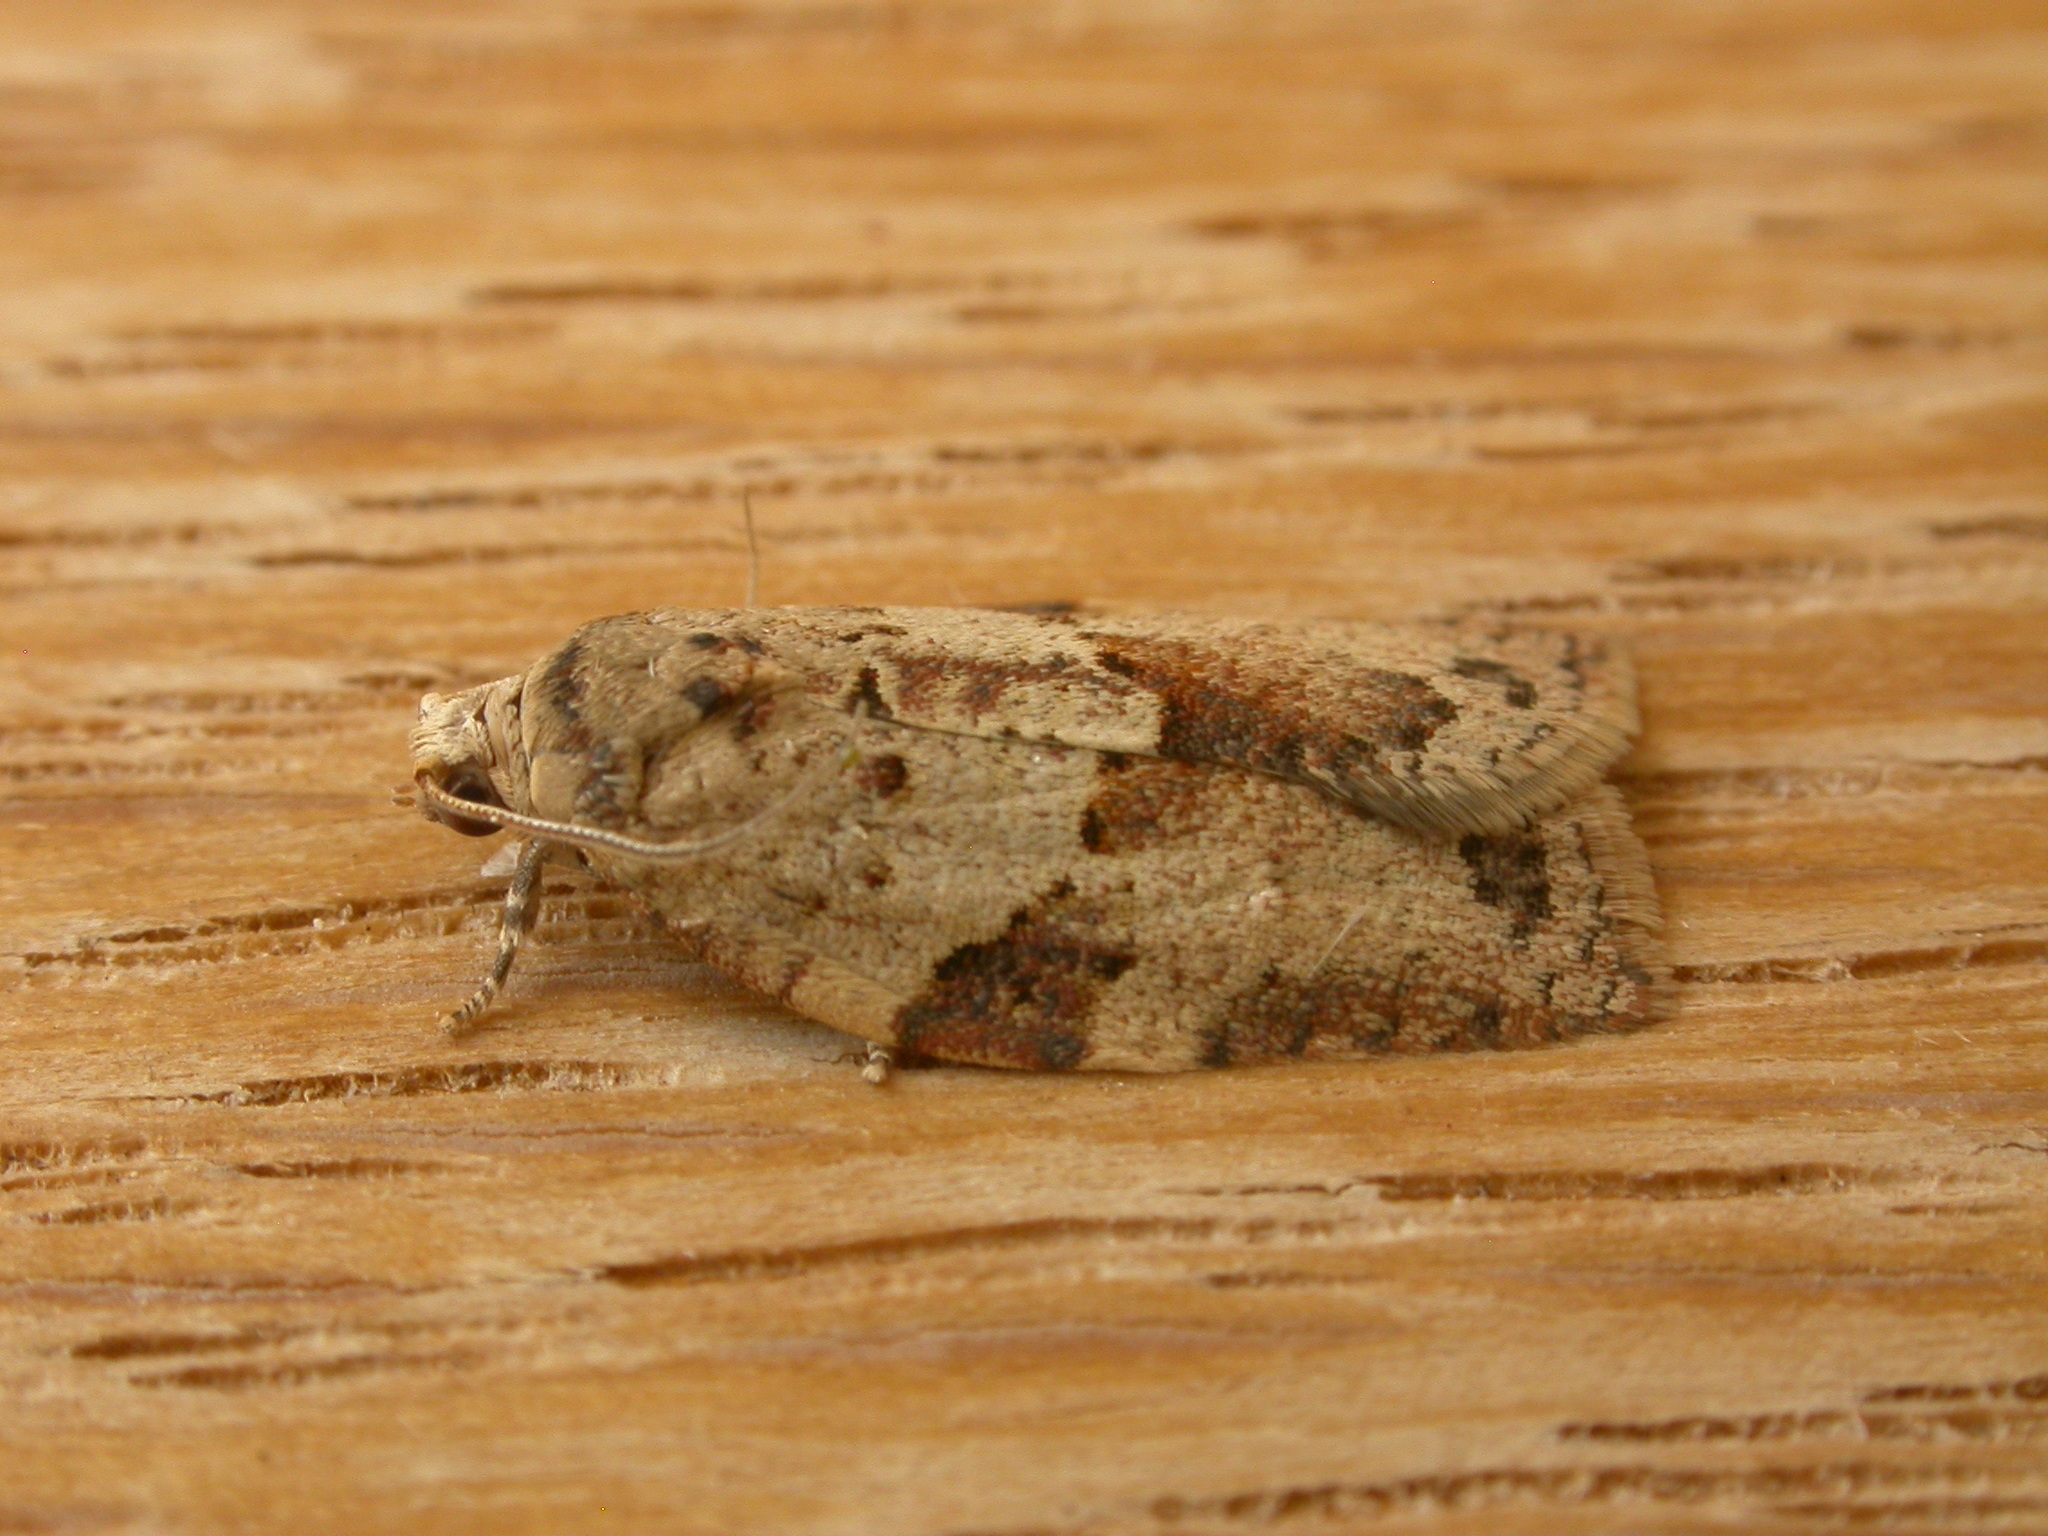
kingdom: Animalia
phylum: Arthropoda
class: Insecta
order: Lepidoptera
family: Tortricidae
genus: Epiphyas
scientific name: Epiphyas ashworthana
